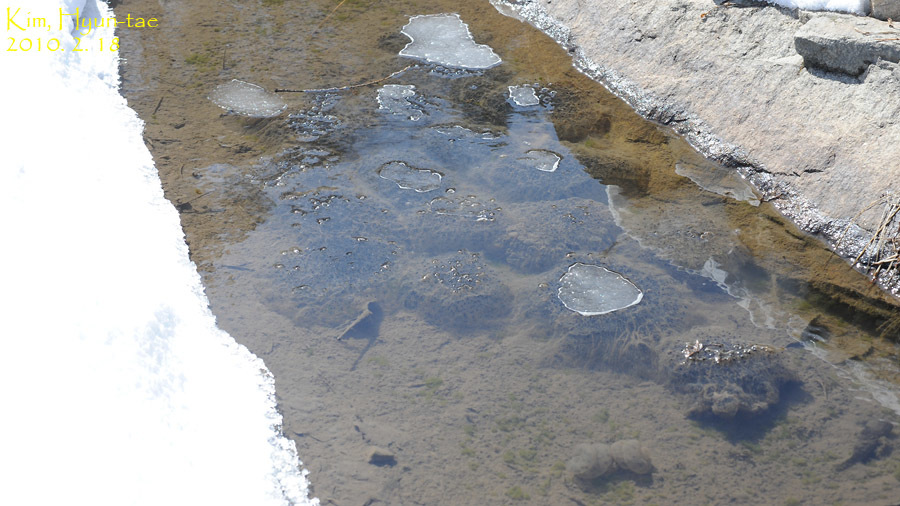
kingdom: Animalia
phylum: Chordata
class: Amphibia
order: Anura
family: Ranidae
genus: Rana
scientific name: Rana uenoi
